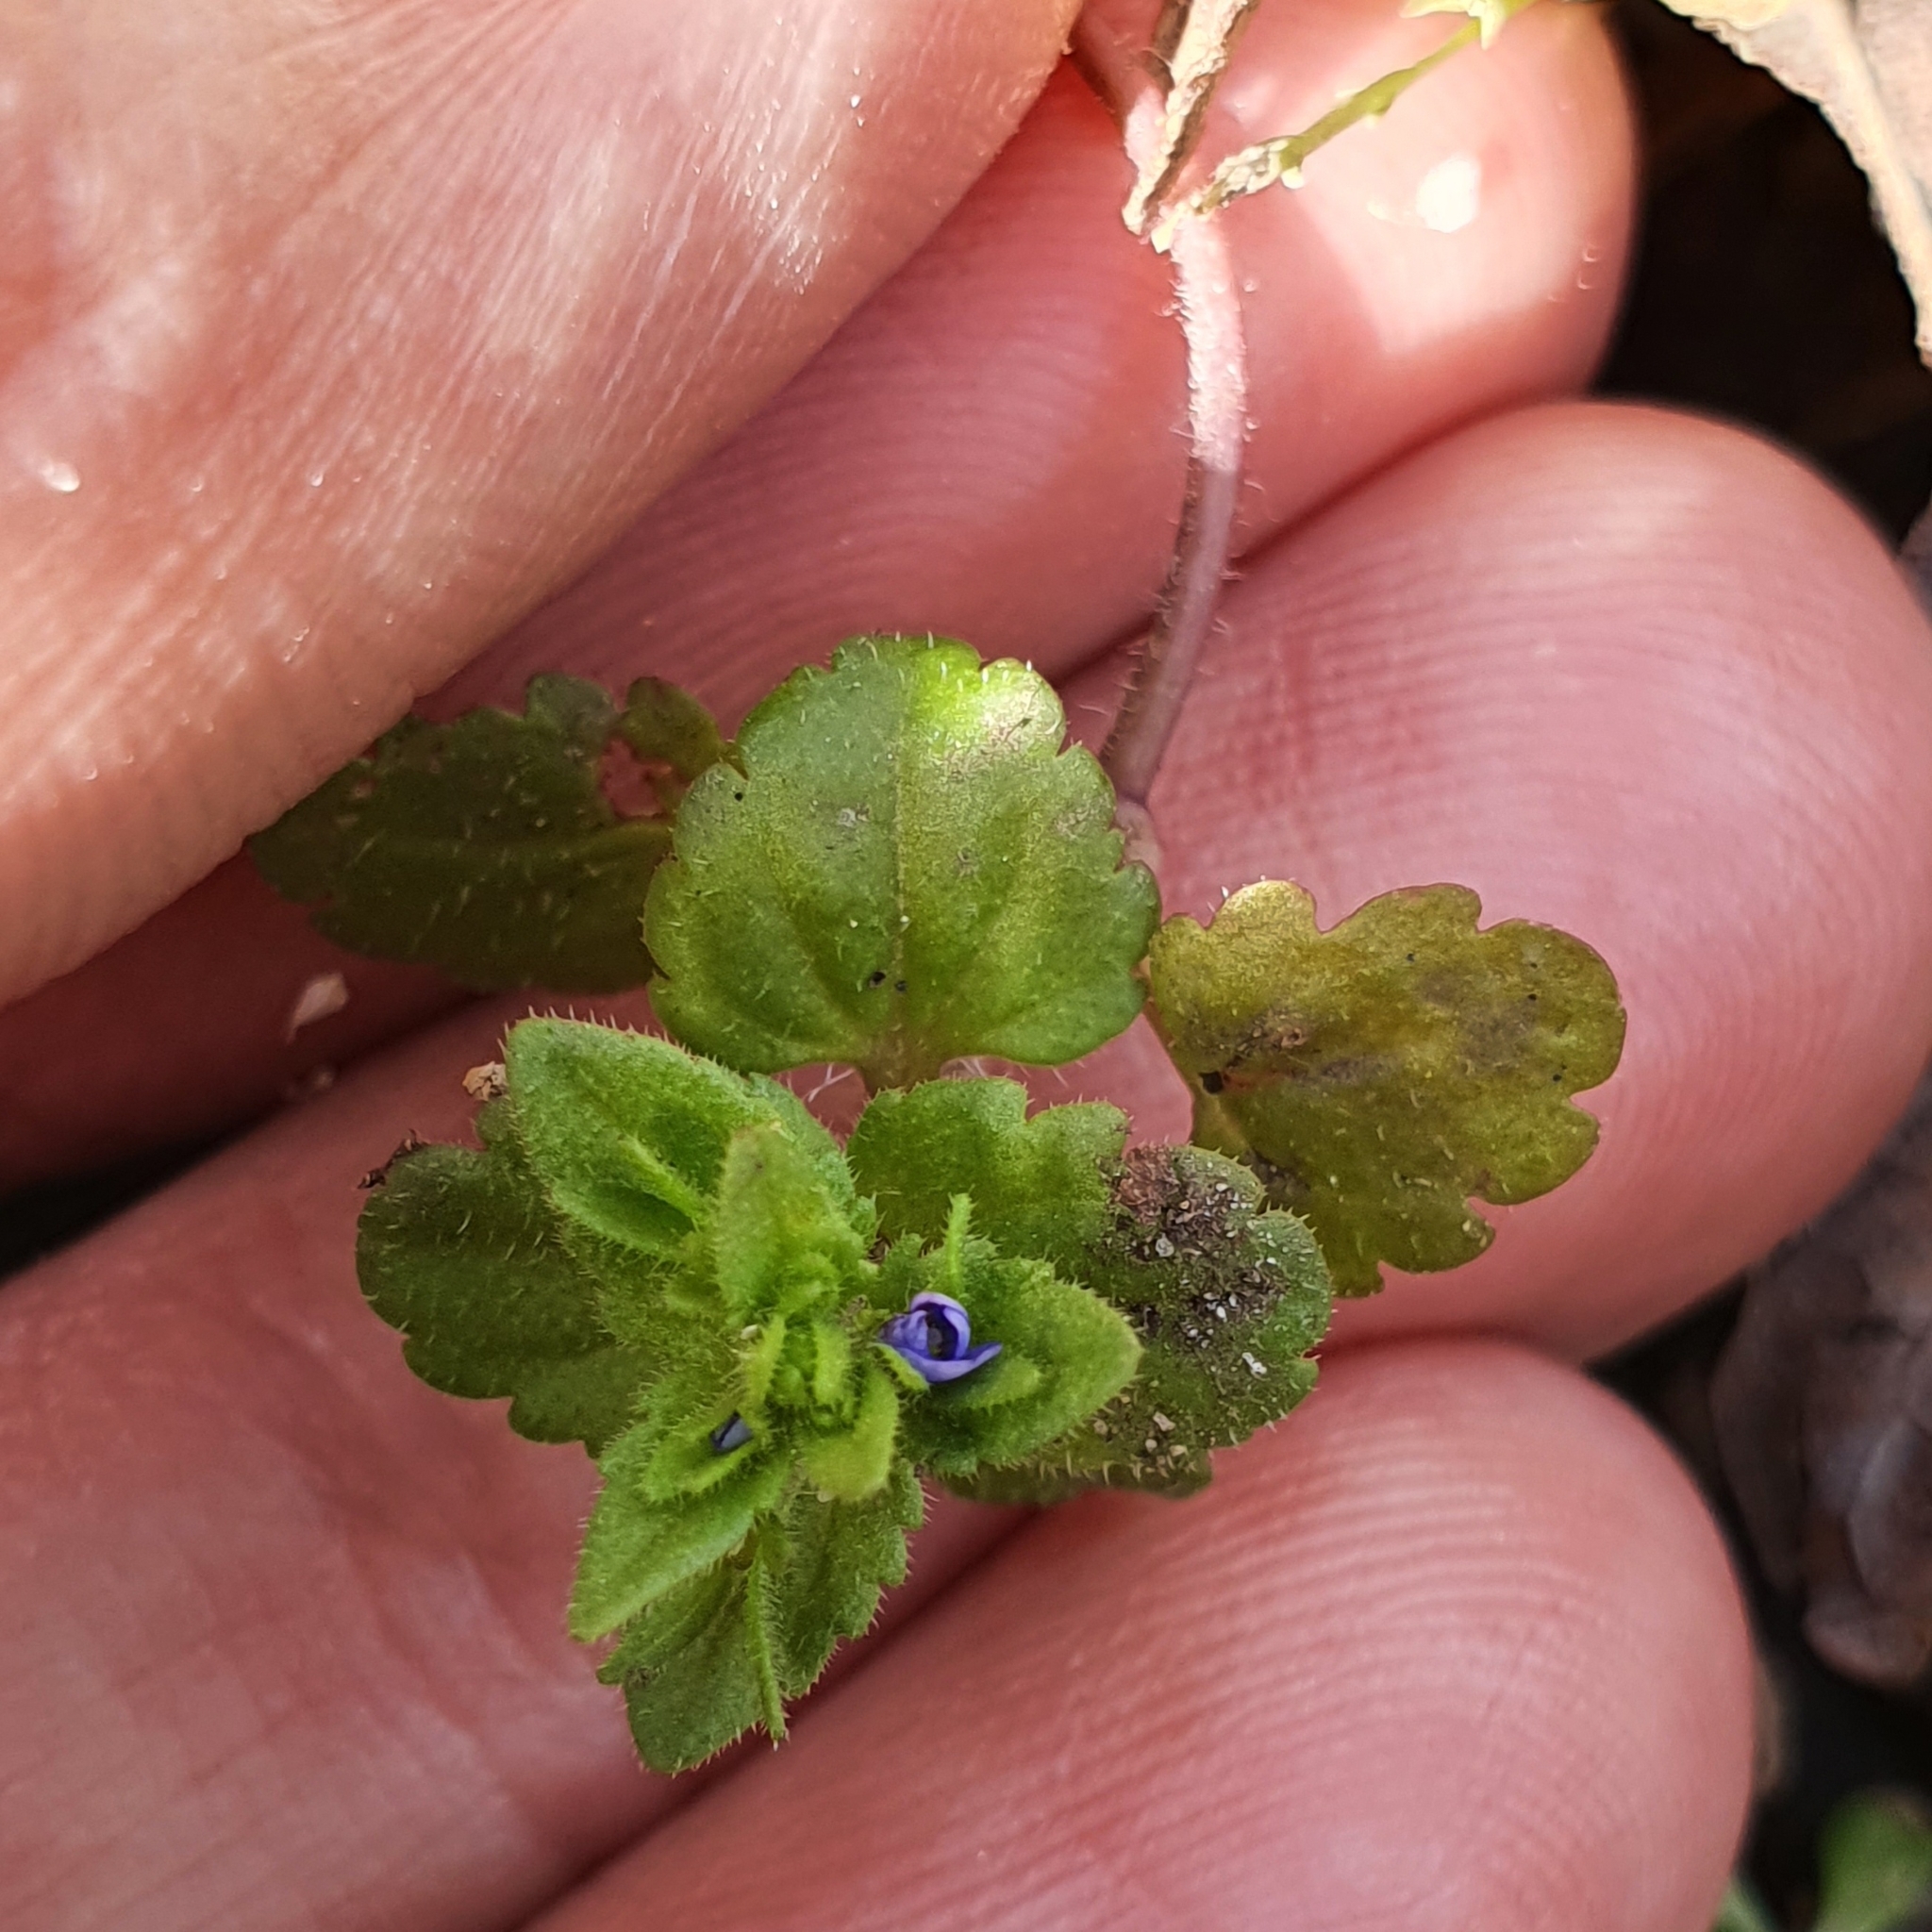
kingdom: Plantae
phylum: Tracheophyta
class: Magnoliopsida
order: Lamiales
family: Plantaginaceae
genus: Veronica
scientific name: Veronica arvensis
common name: Corn speedwell
